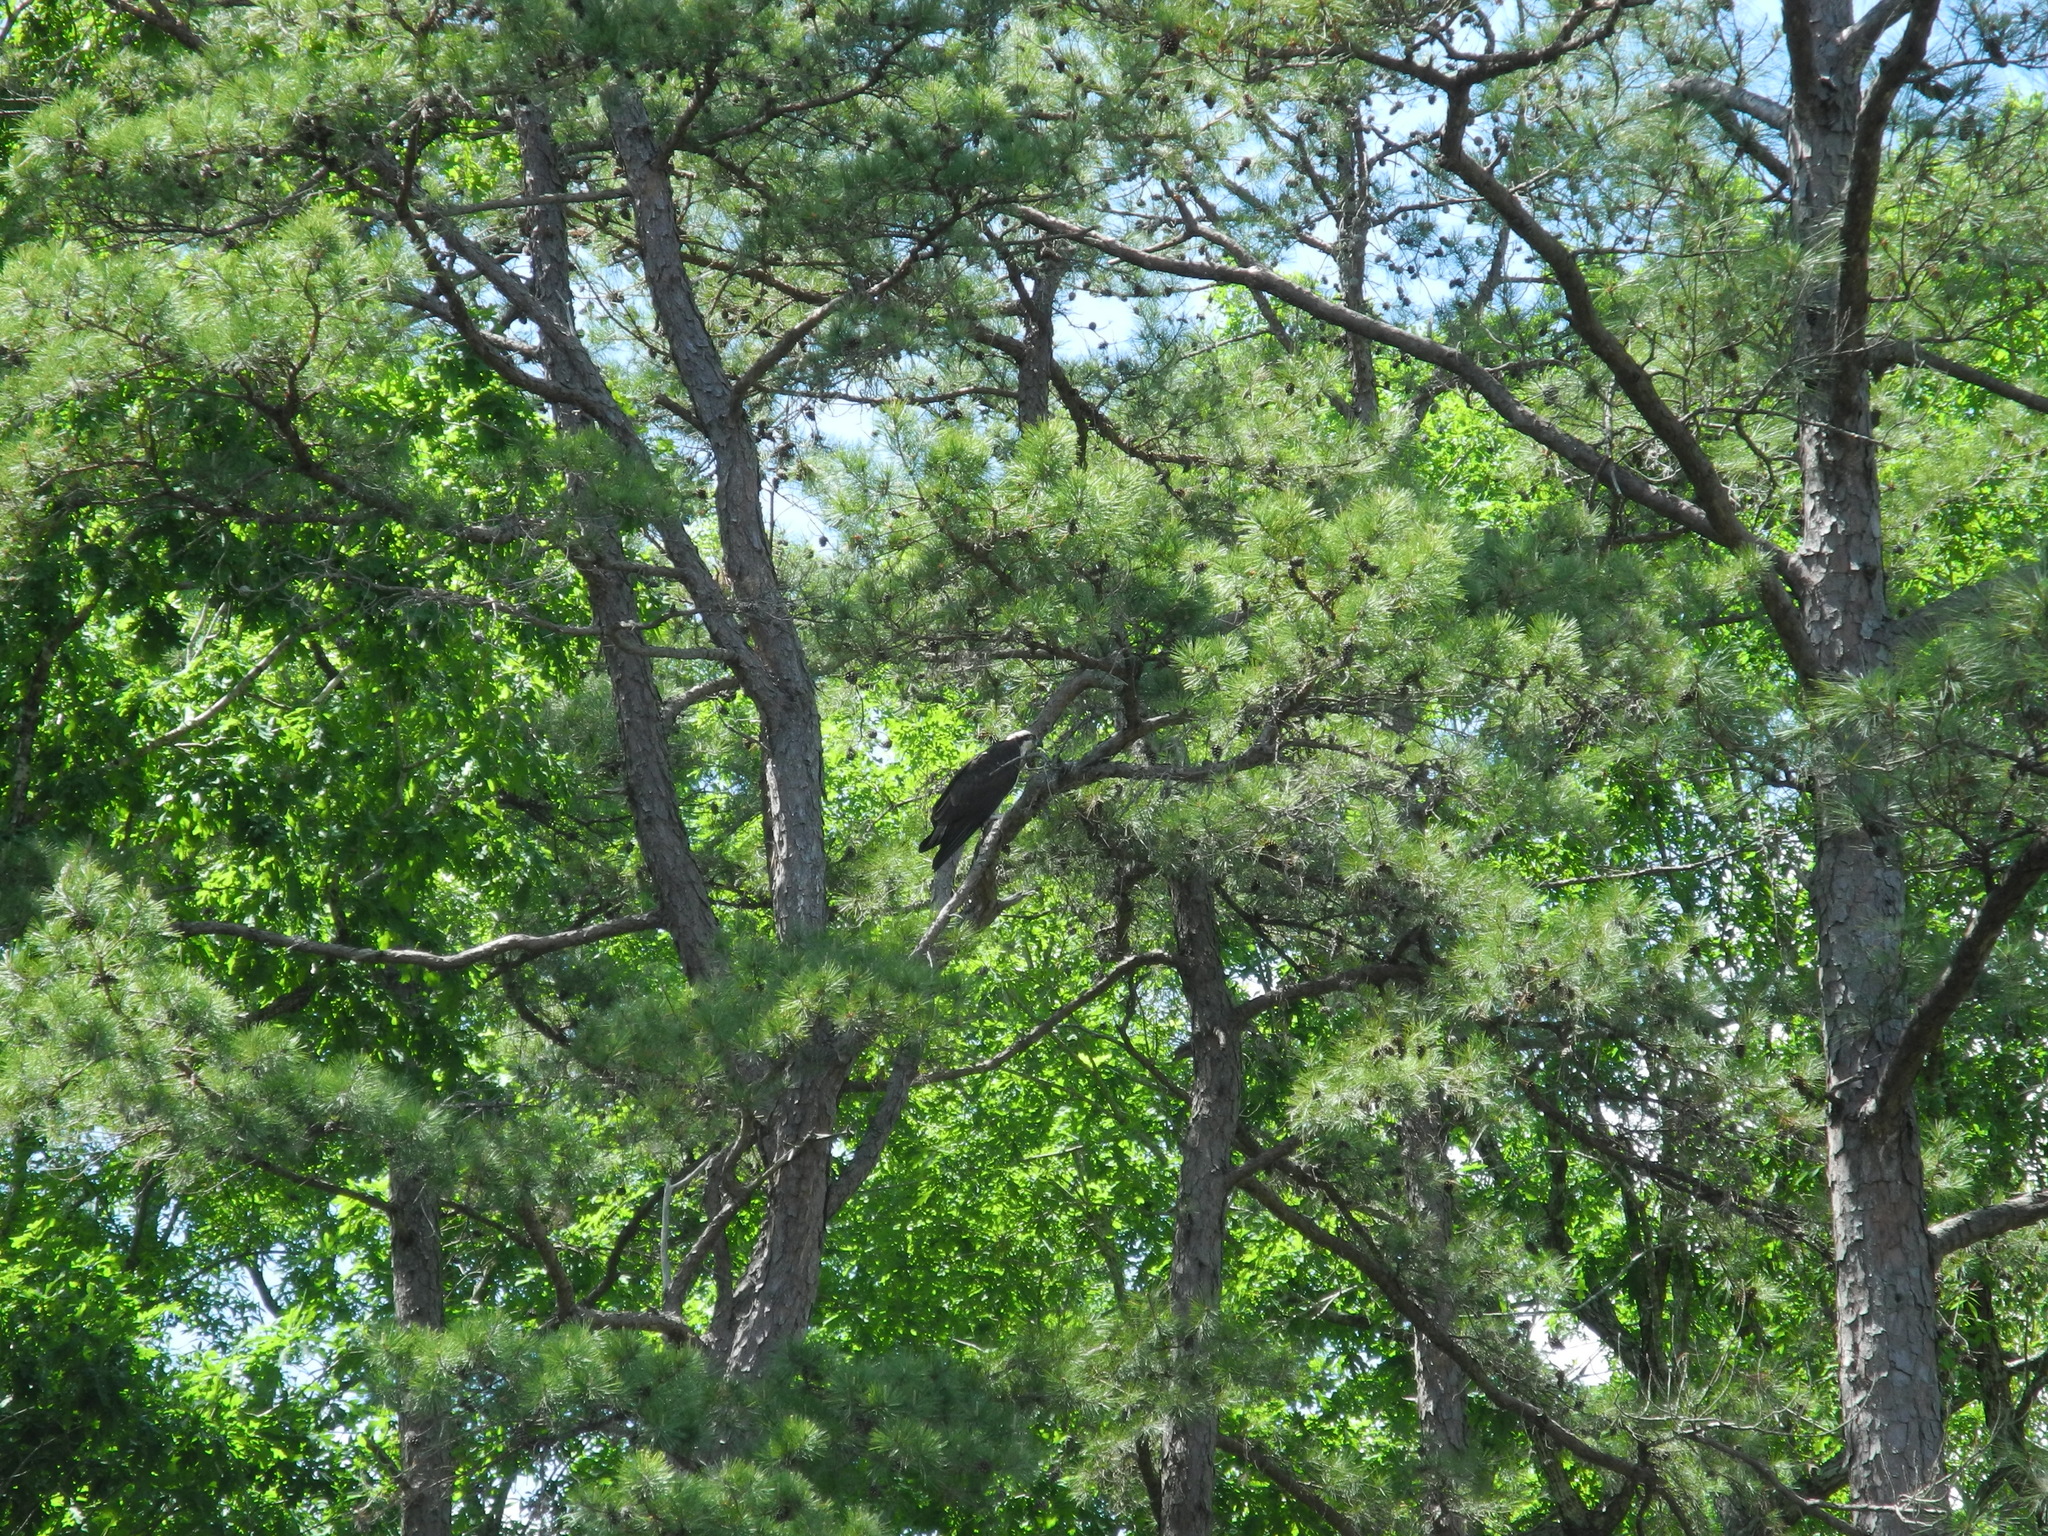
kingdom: Animalia
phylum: Chordata
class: Aves
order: Accipitriformes
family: Pandionidae
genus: Pandion
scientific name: Pandion haliaetus
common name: Osprey
